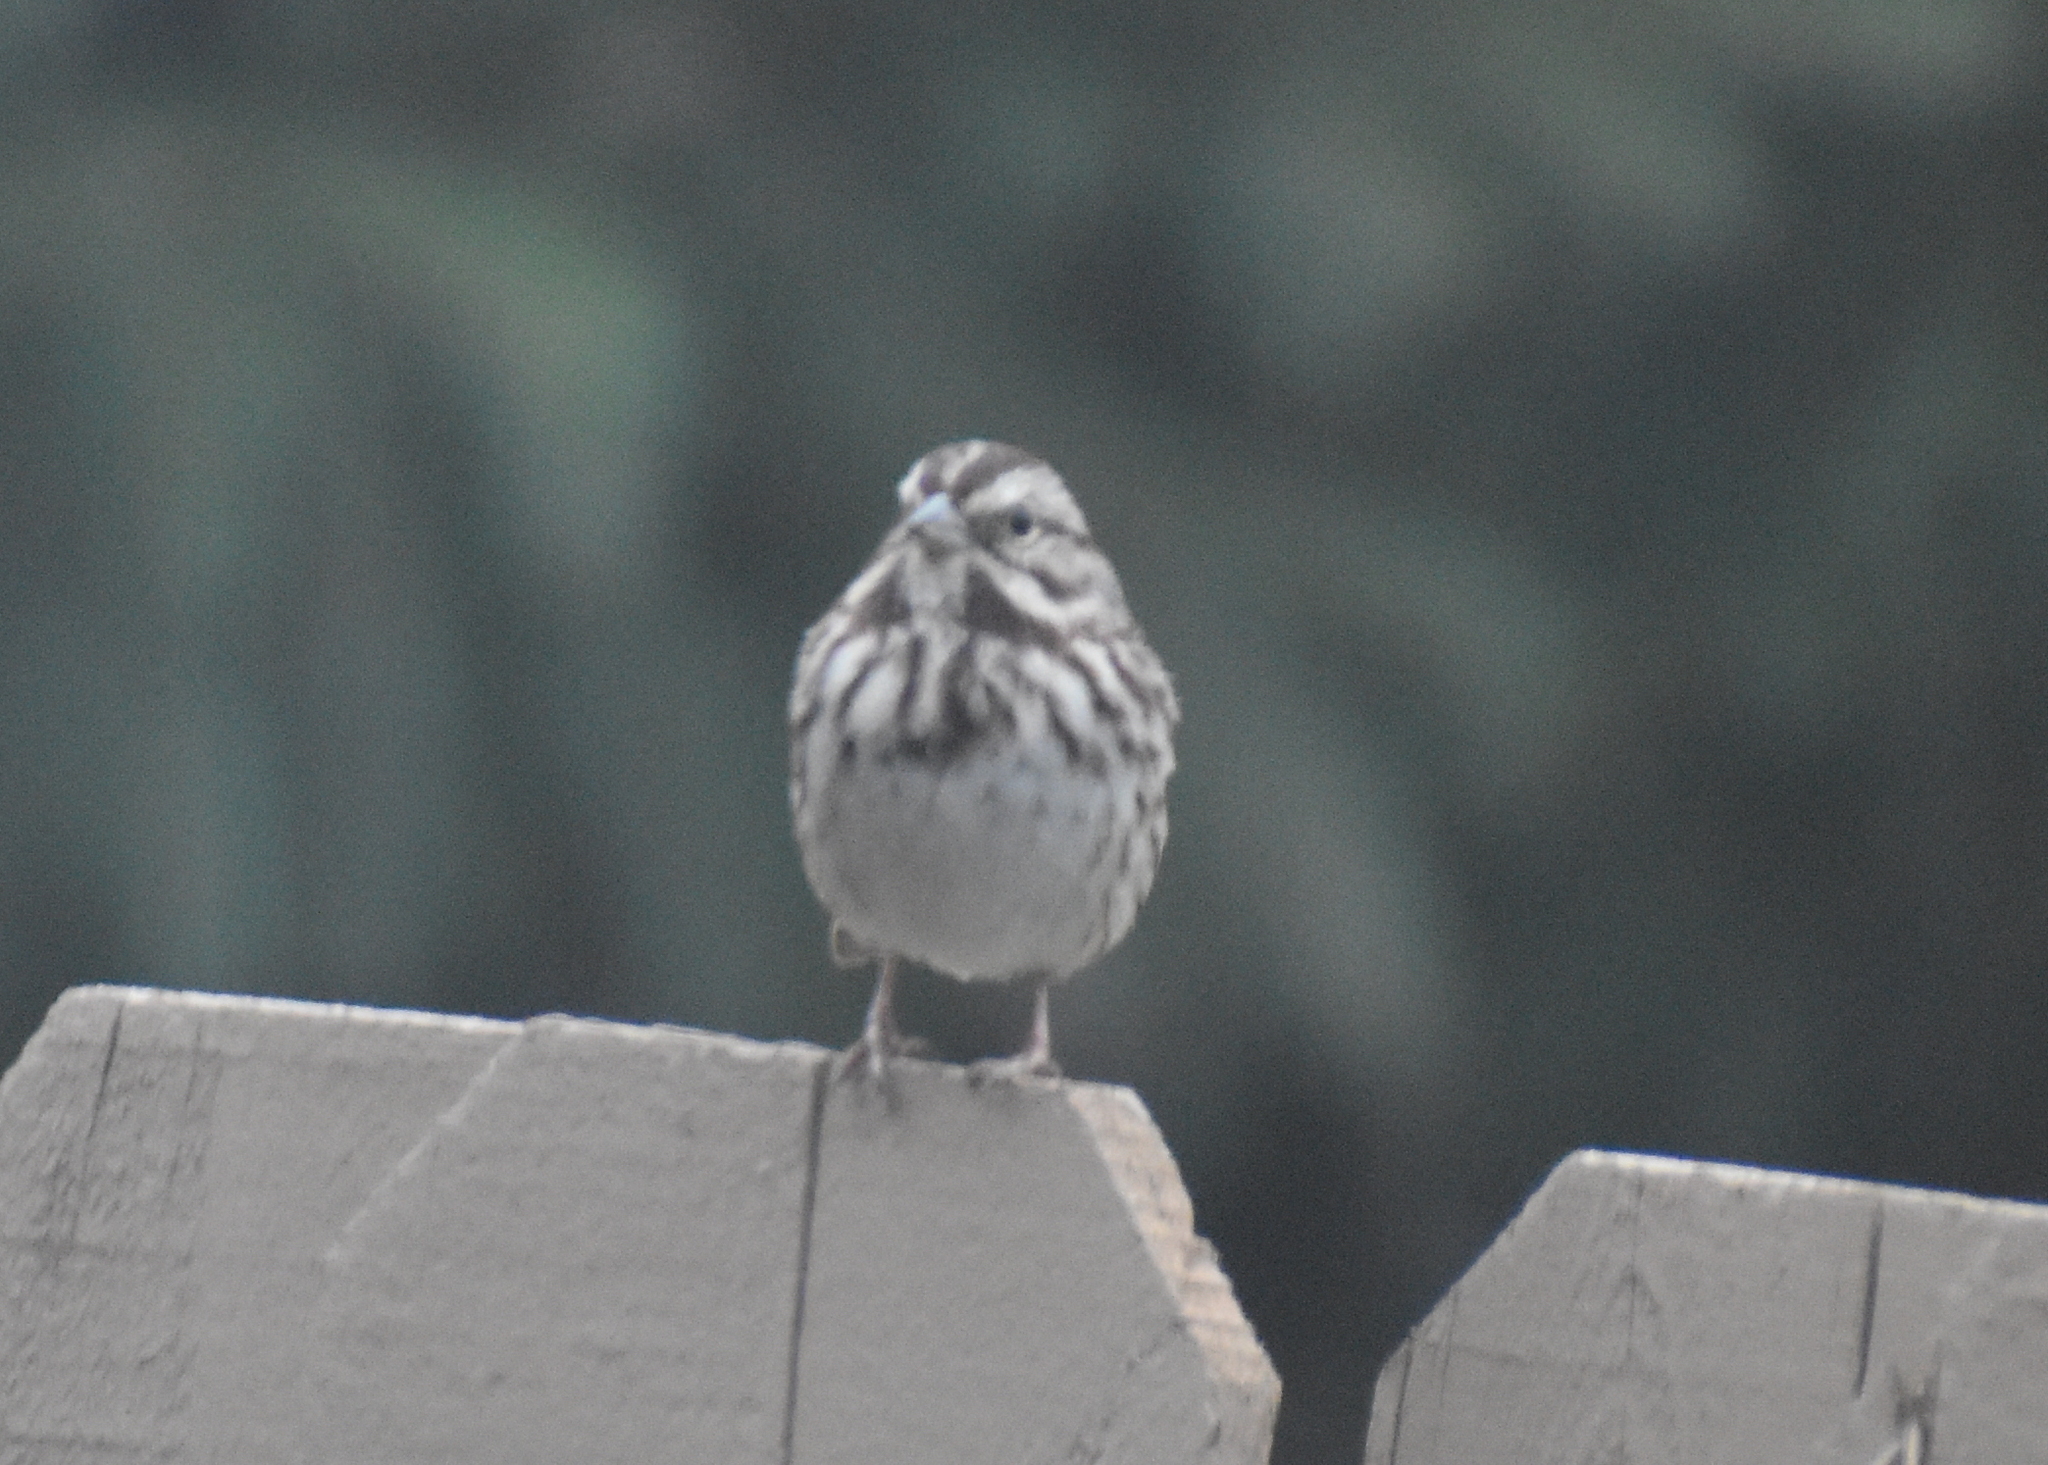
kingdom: Animalia
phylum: Chordata
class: Aves
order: Passeriformes
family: Passerellidae
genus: Melospiza
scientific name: Melospiza melodia
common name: Song sparrow
